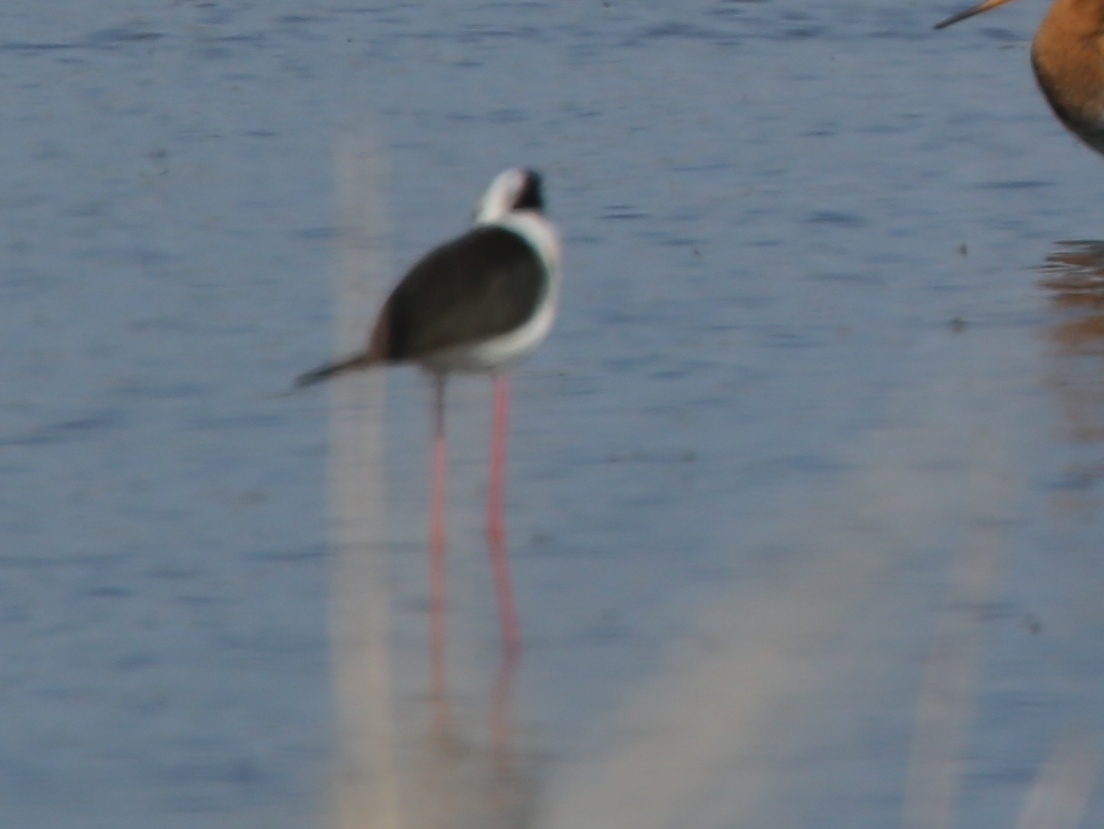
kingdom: Animalia
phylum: Chordata
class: Aves
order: Charadriiformes
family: Recurvirostridae
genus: Himantopus
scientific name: Himantopus himantopus
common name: Black-winged stilt
